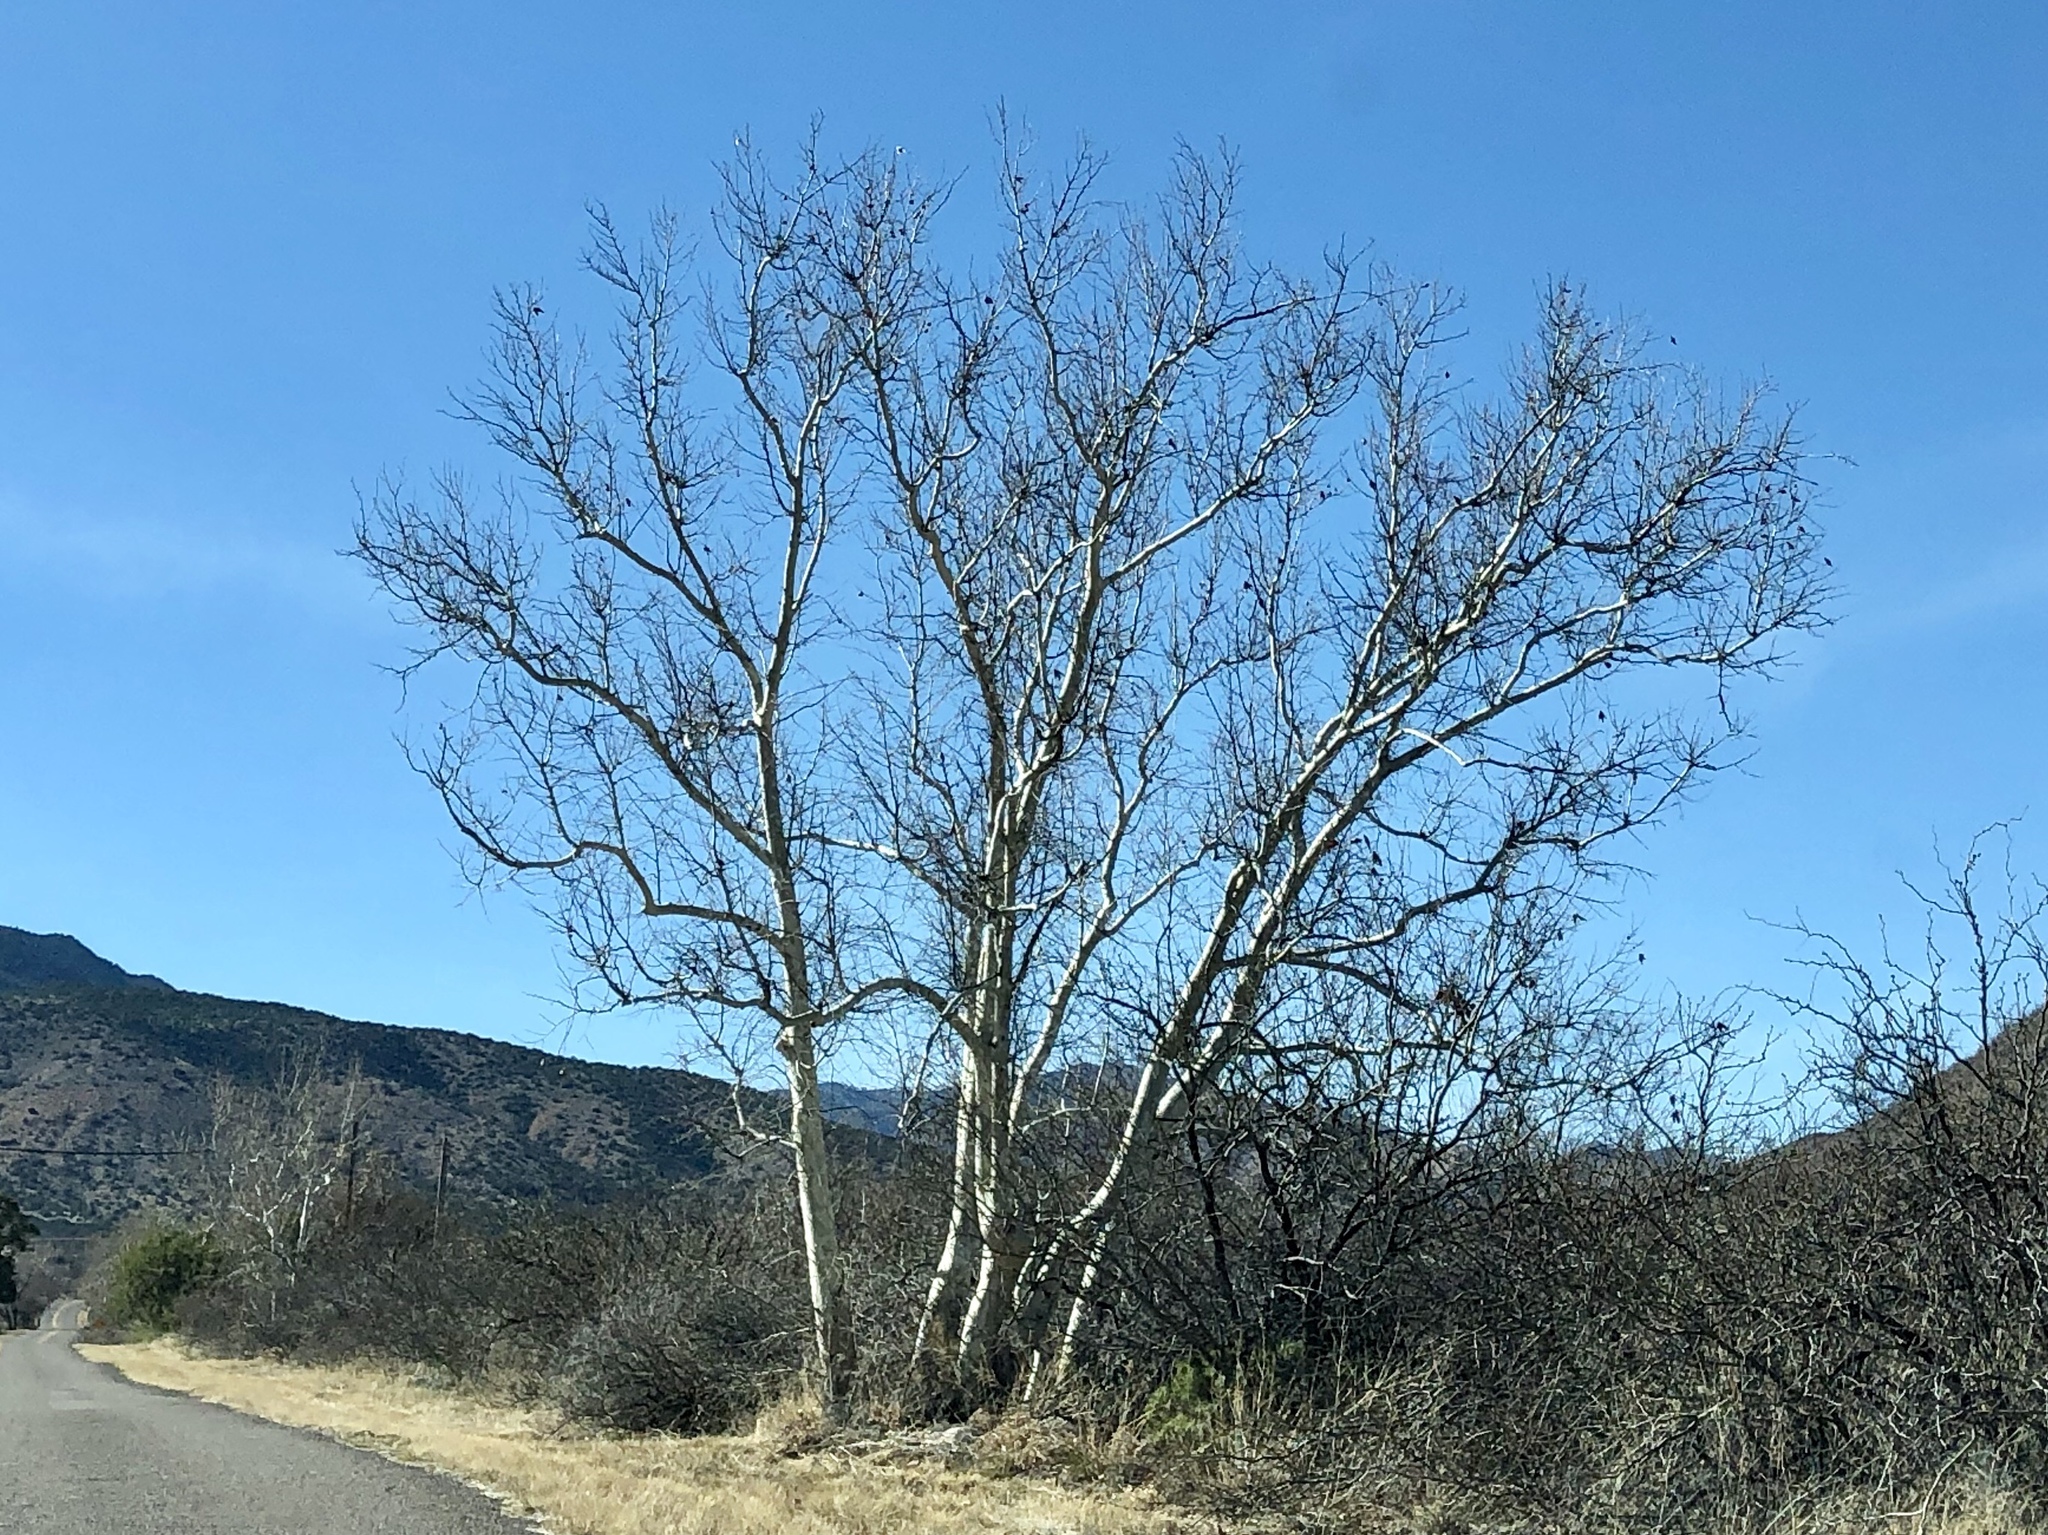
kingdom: Plantae
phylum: Tracheophyta
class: Magnoliopsida
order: Proteales
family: Platanaceae
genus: Platanus
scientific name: Platanus wrightii
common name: Arizona sycamore
